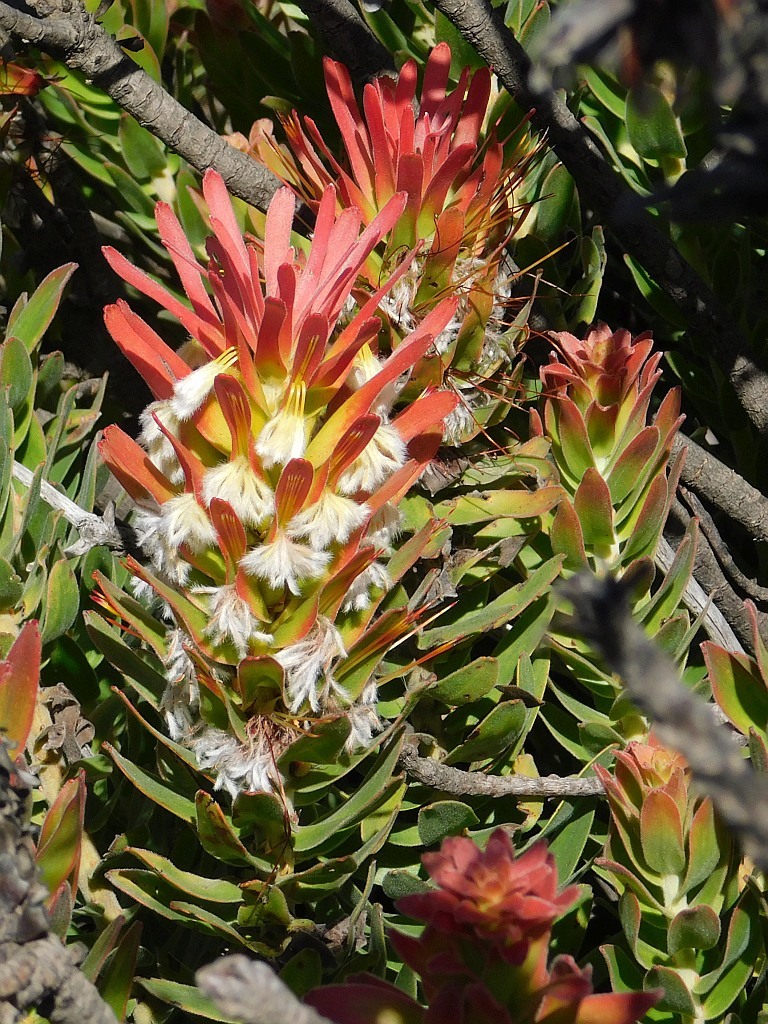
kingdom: Plantae
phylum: Tracheophyta
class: Magnoliopsida
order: Proteales
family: Proteaceae
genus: Mimetes
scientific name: Mimetes cucullatus
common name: Common pagoda
